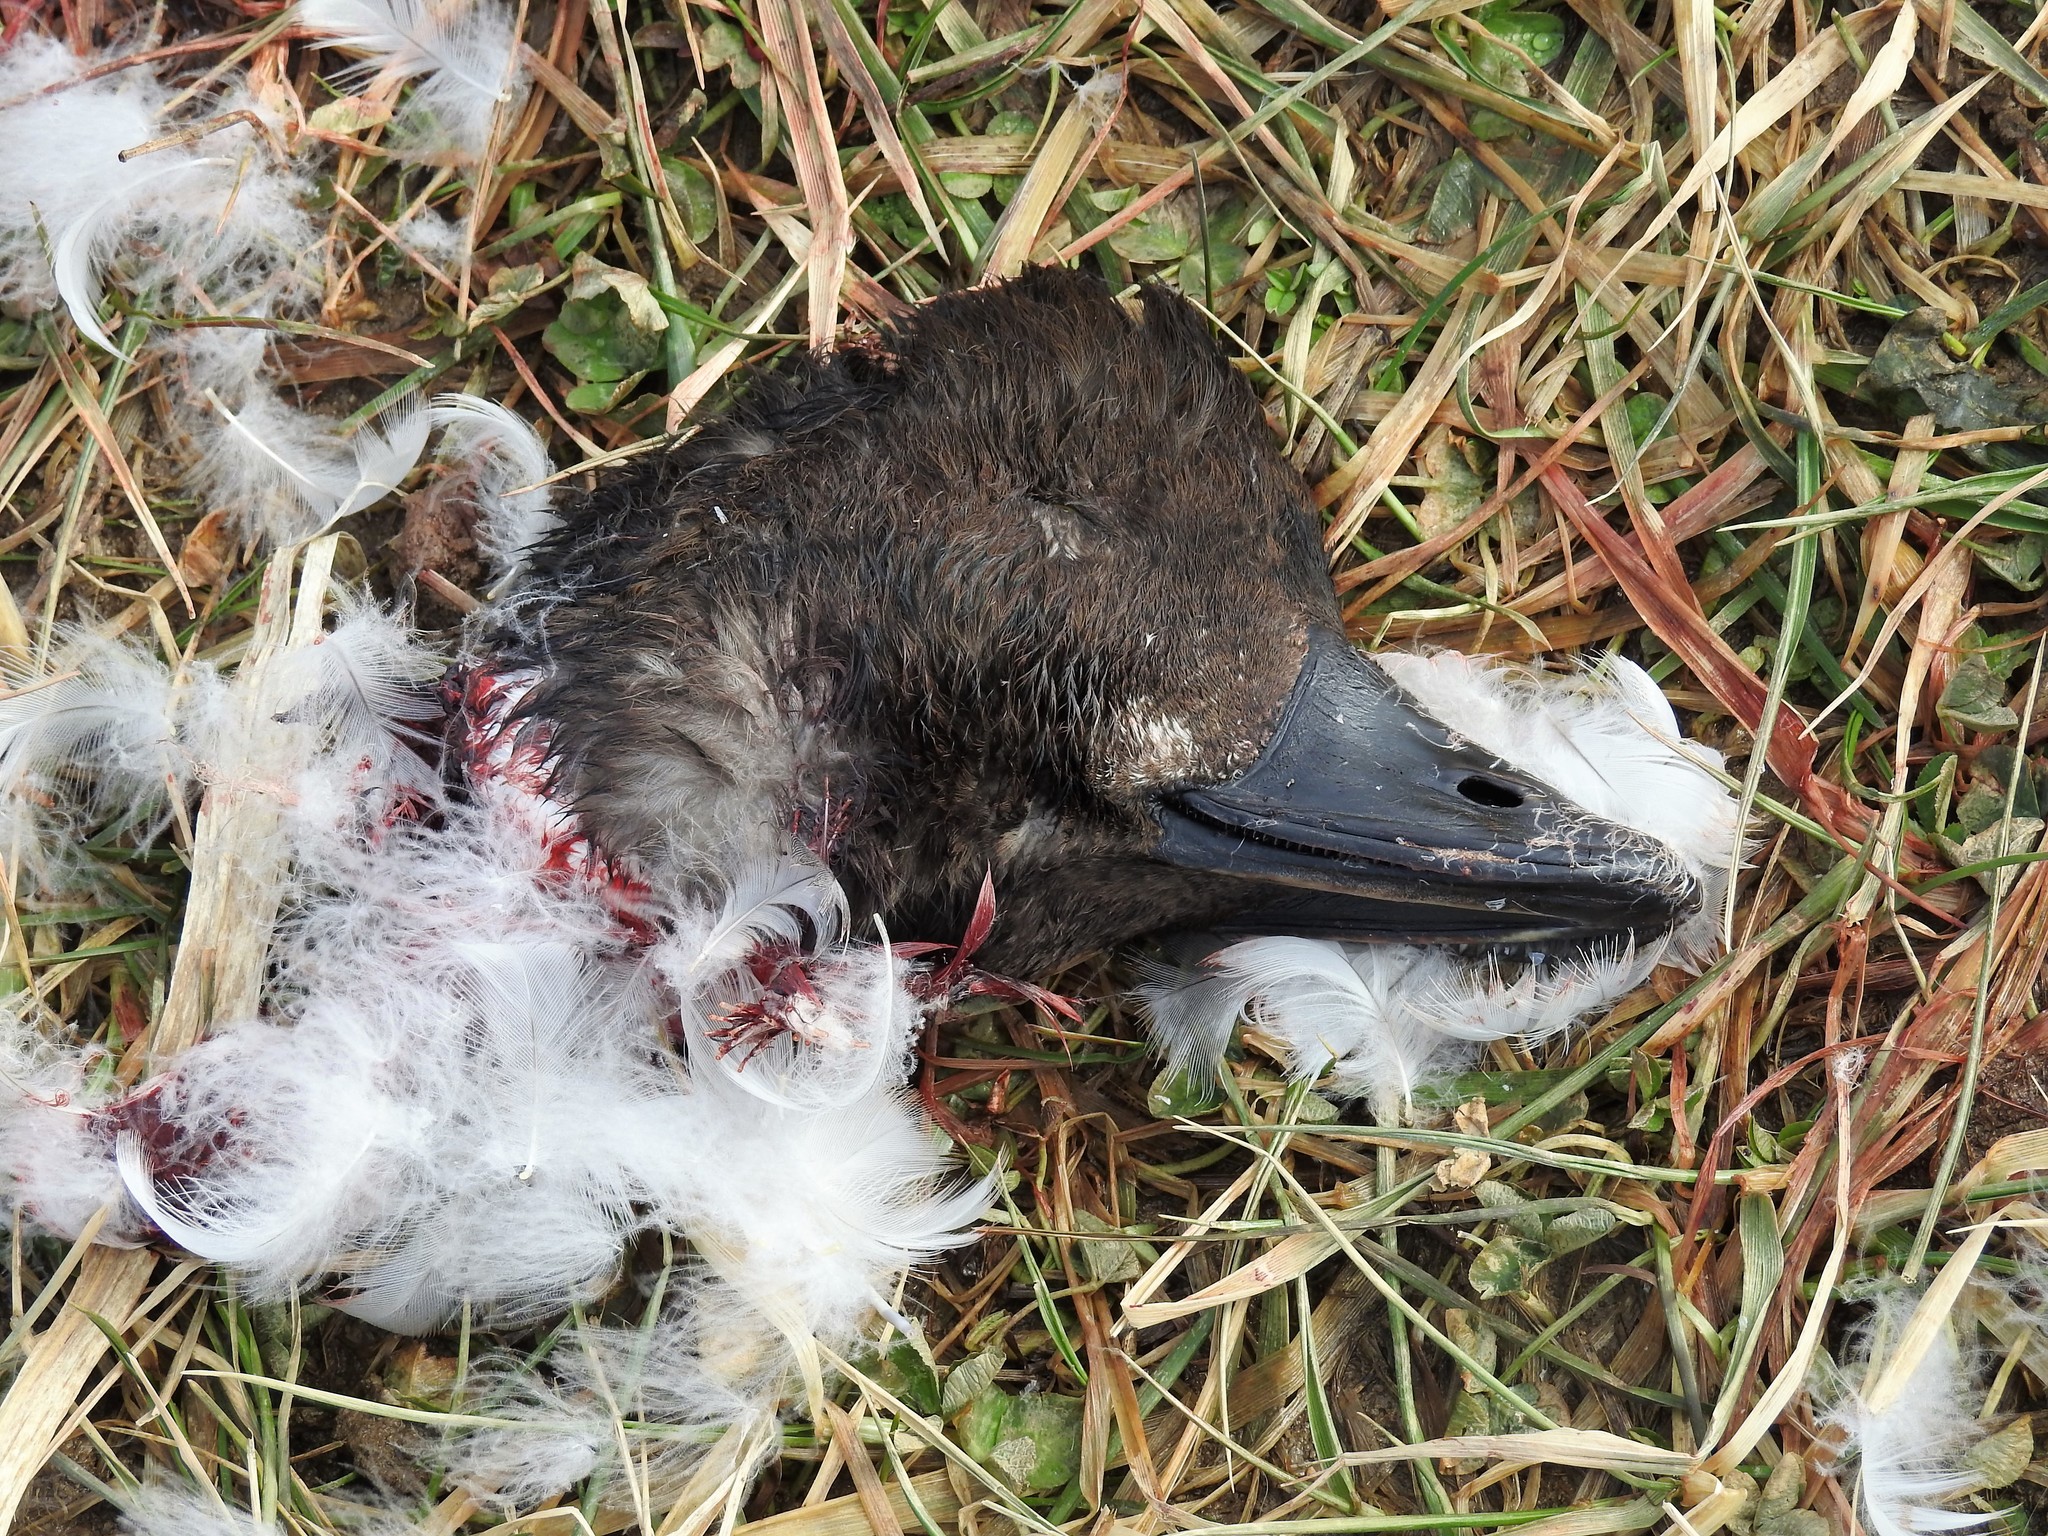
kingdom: Animalia
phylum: Chordata
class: Aves
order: Anseriformes
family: Anatidae
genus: Bucephala
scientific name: Bucephala clangula
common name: Common goldeneye
